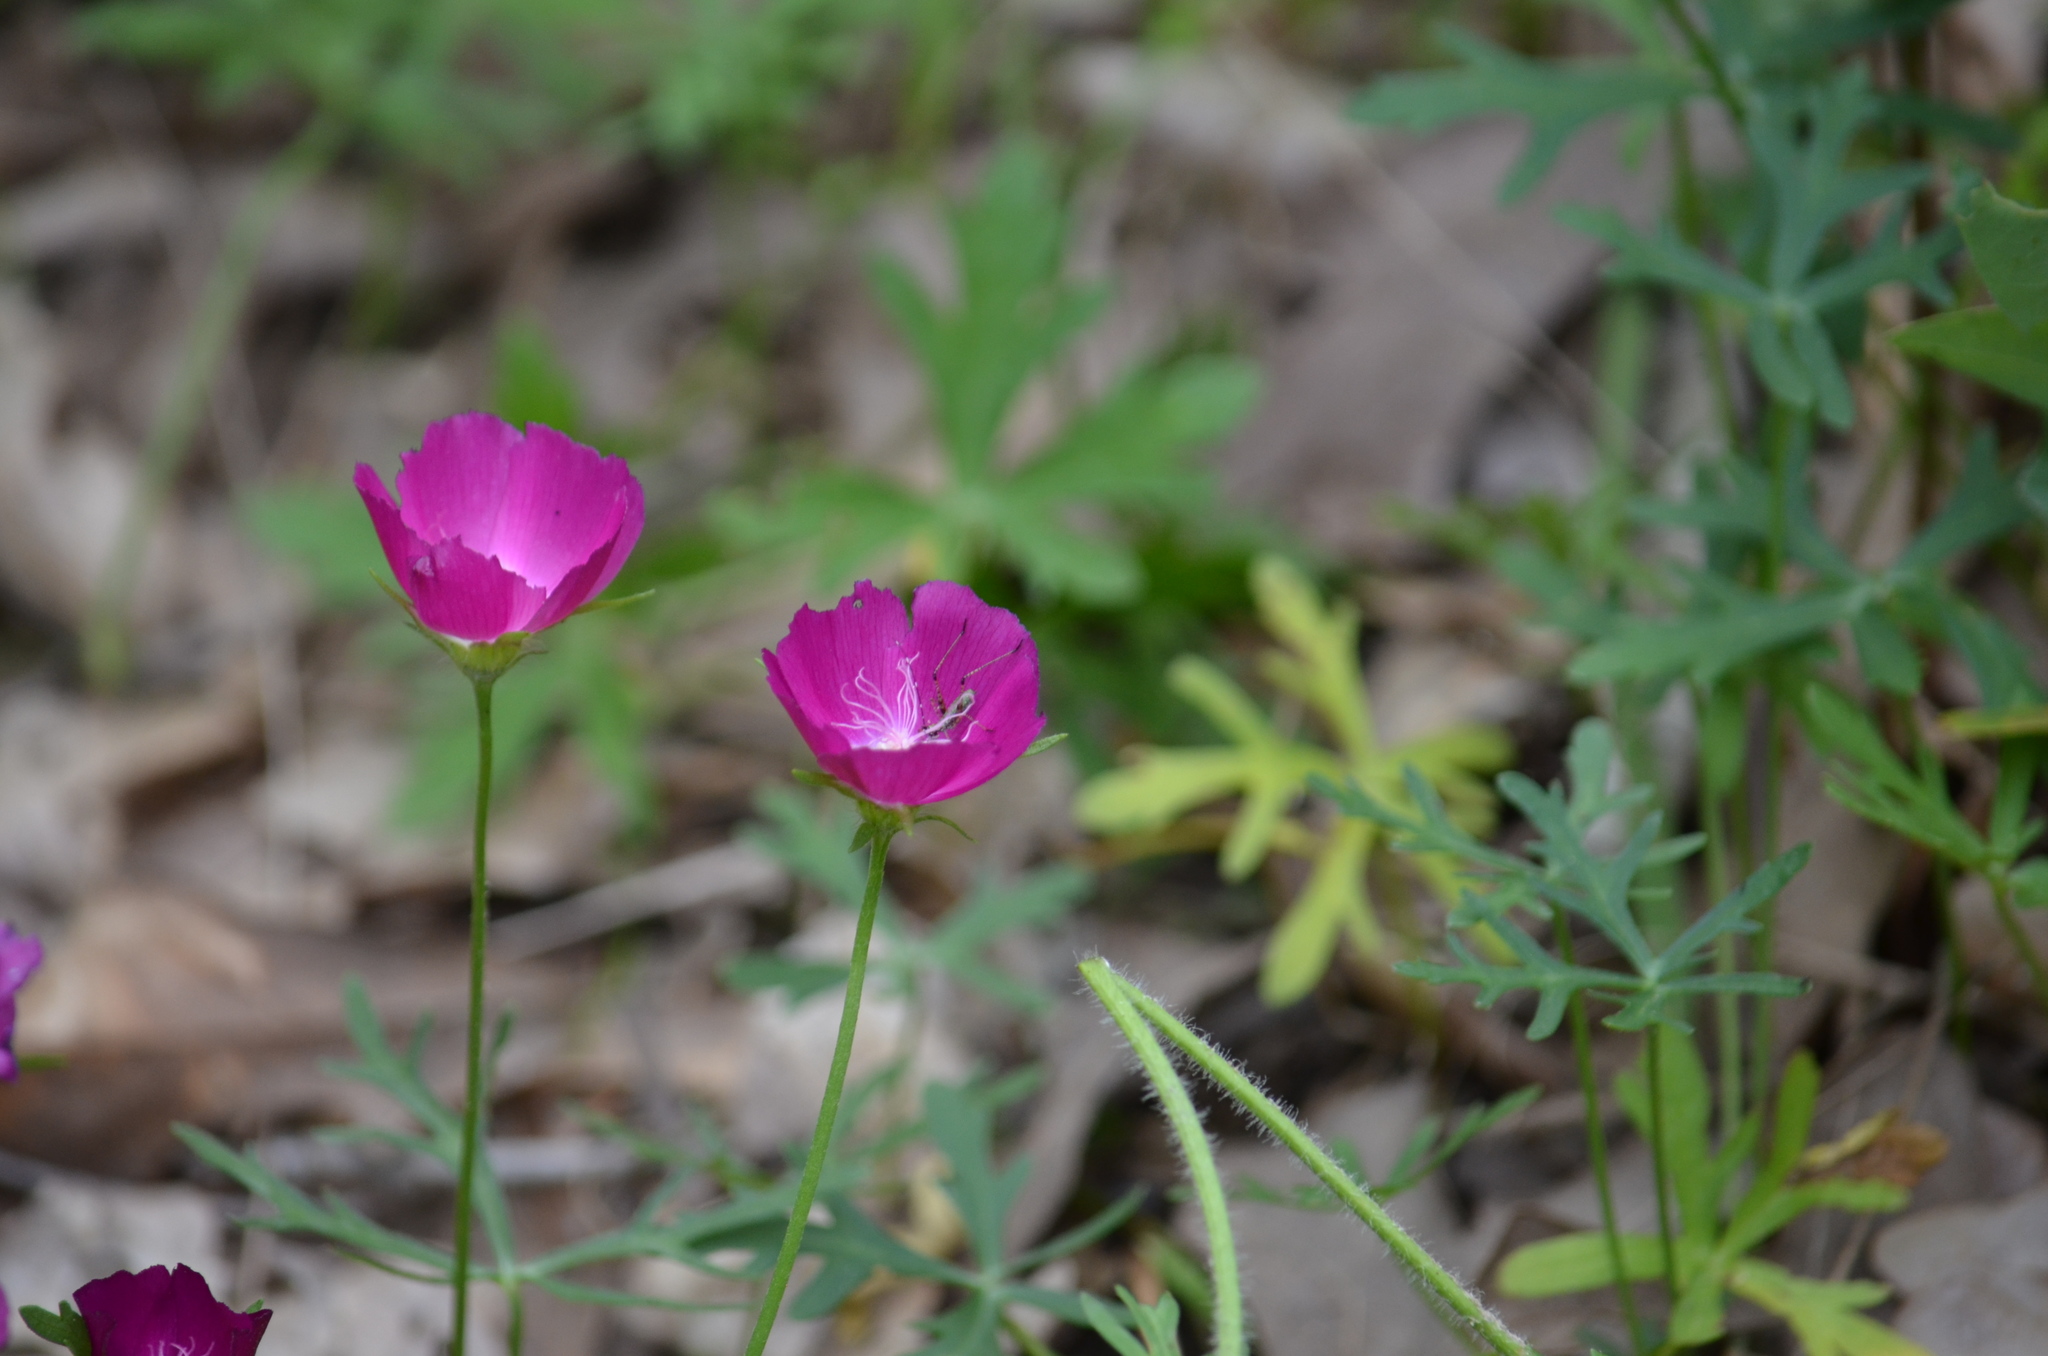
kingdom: Plantae
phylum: Tracheophyta
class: Magnoliopsida
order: Malvales
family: Malvaceae
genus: Callirhoe
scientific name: Callirhoe involucrata
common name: Purple poppy-mallow
